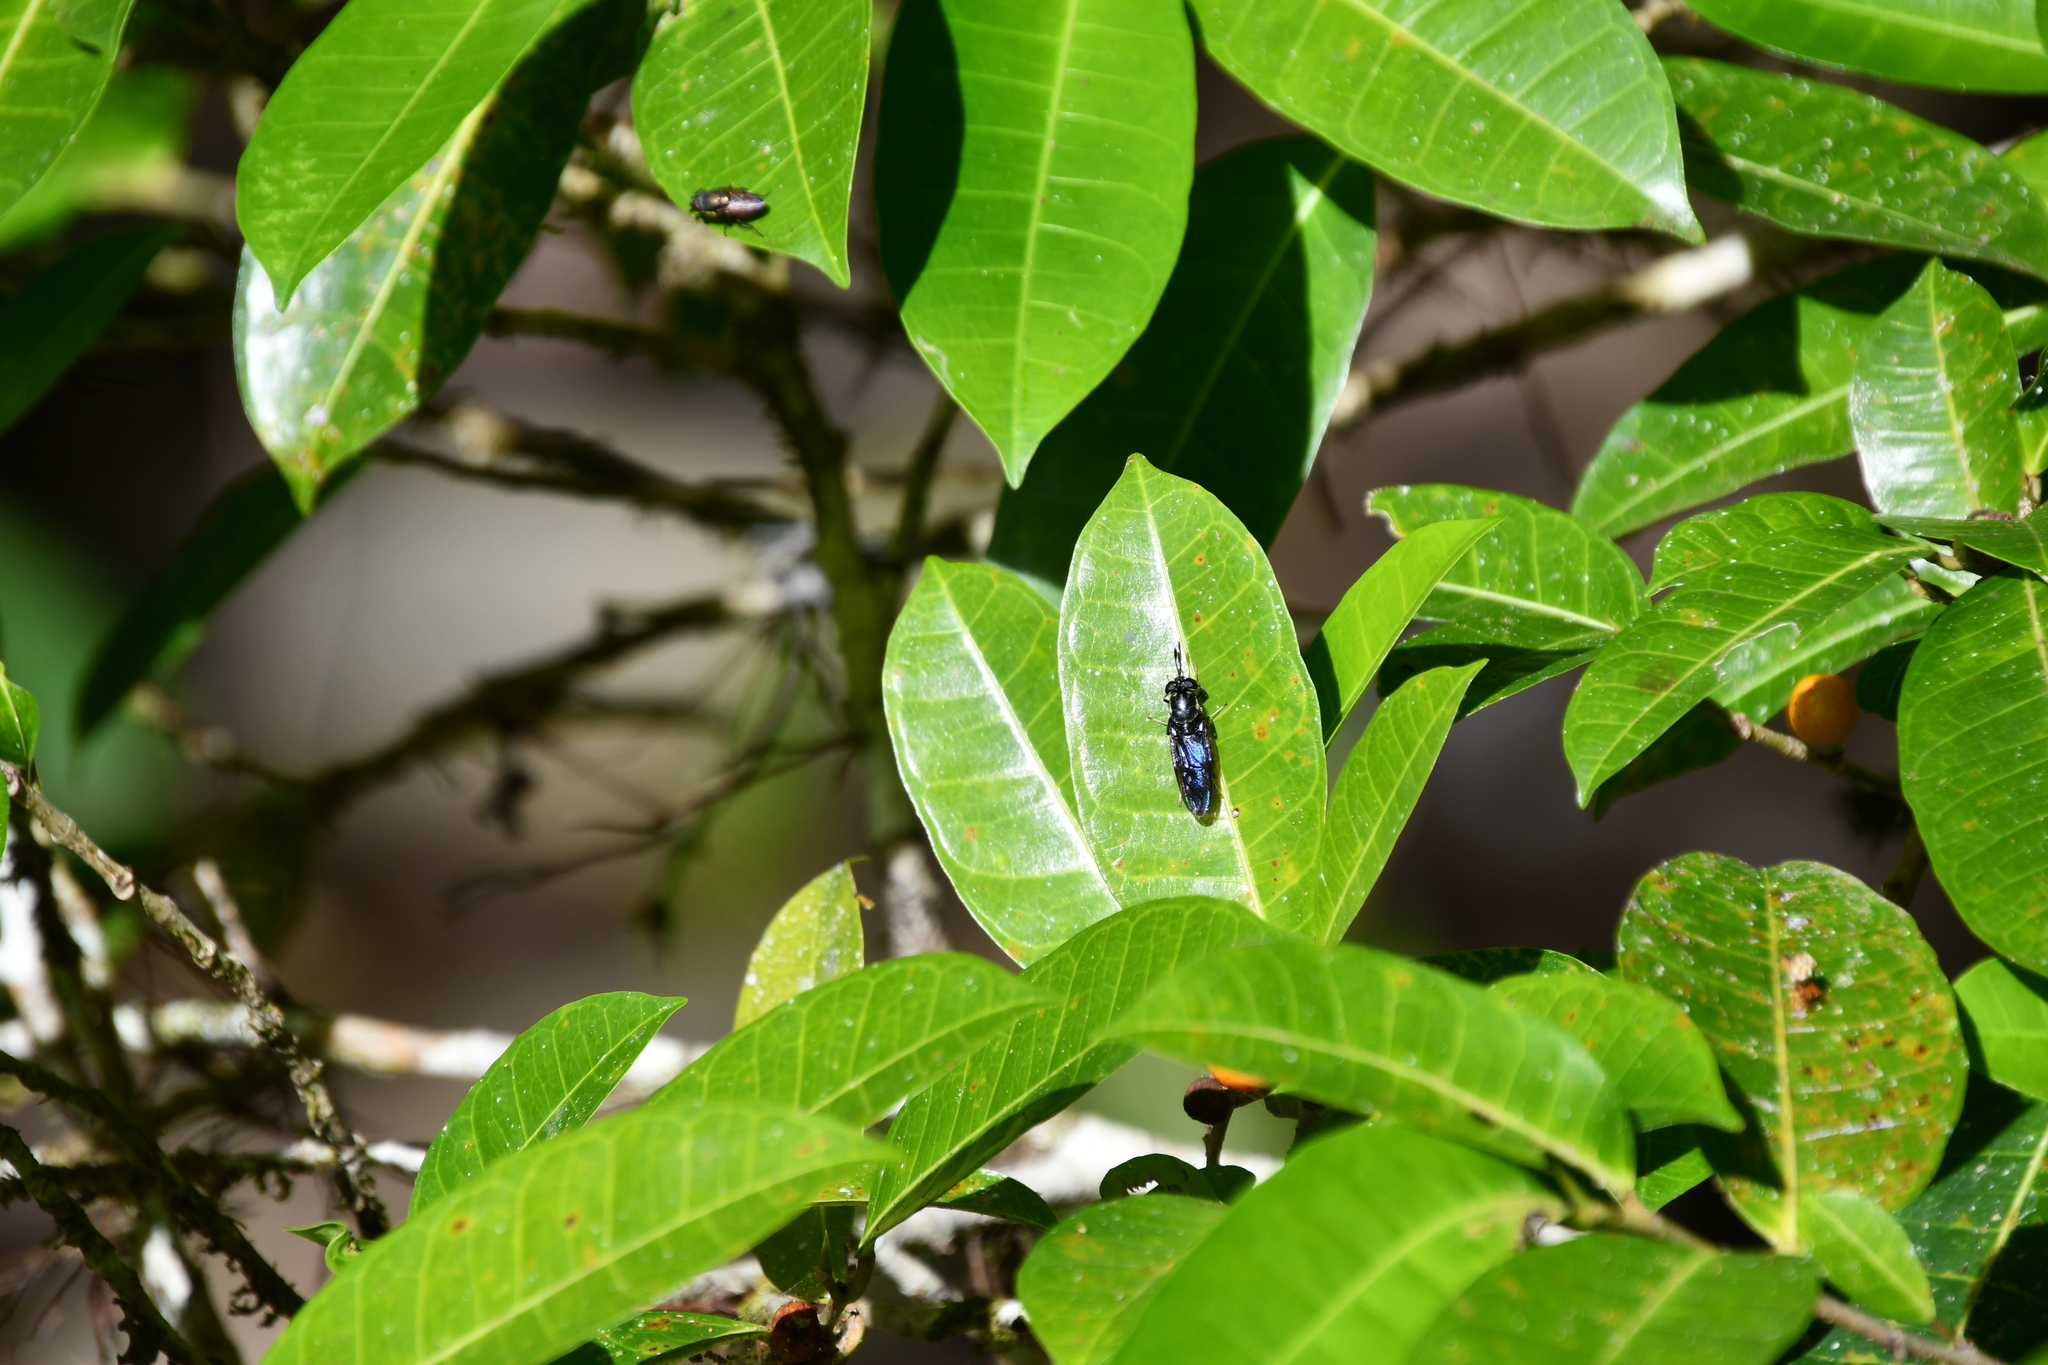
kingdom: Animalia
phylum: Arthropoda
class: Insecta
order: Diptera
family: Stratiomyidae
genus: Hermetia
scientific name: Hermetia illucens
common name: Black soldier fly
